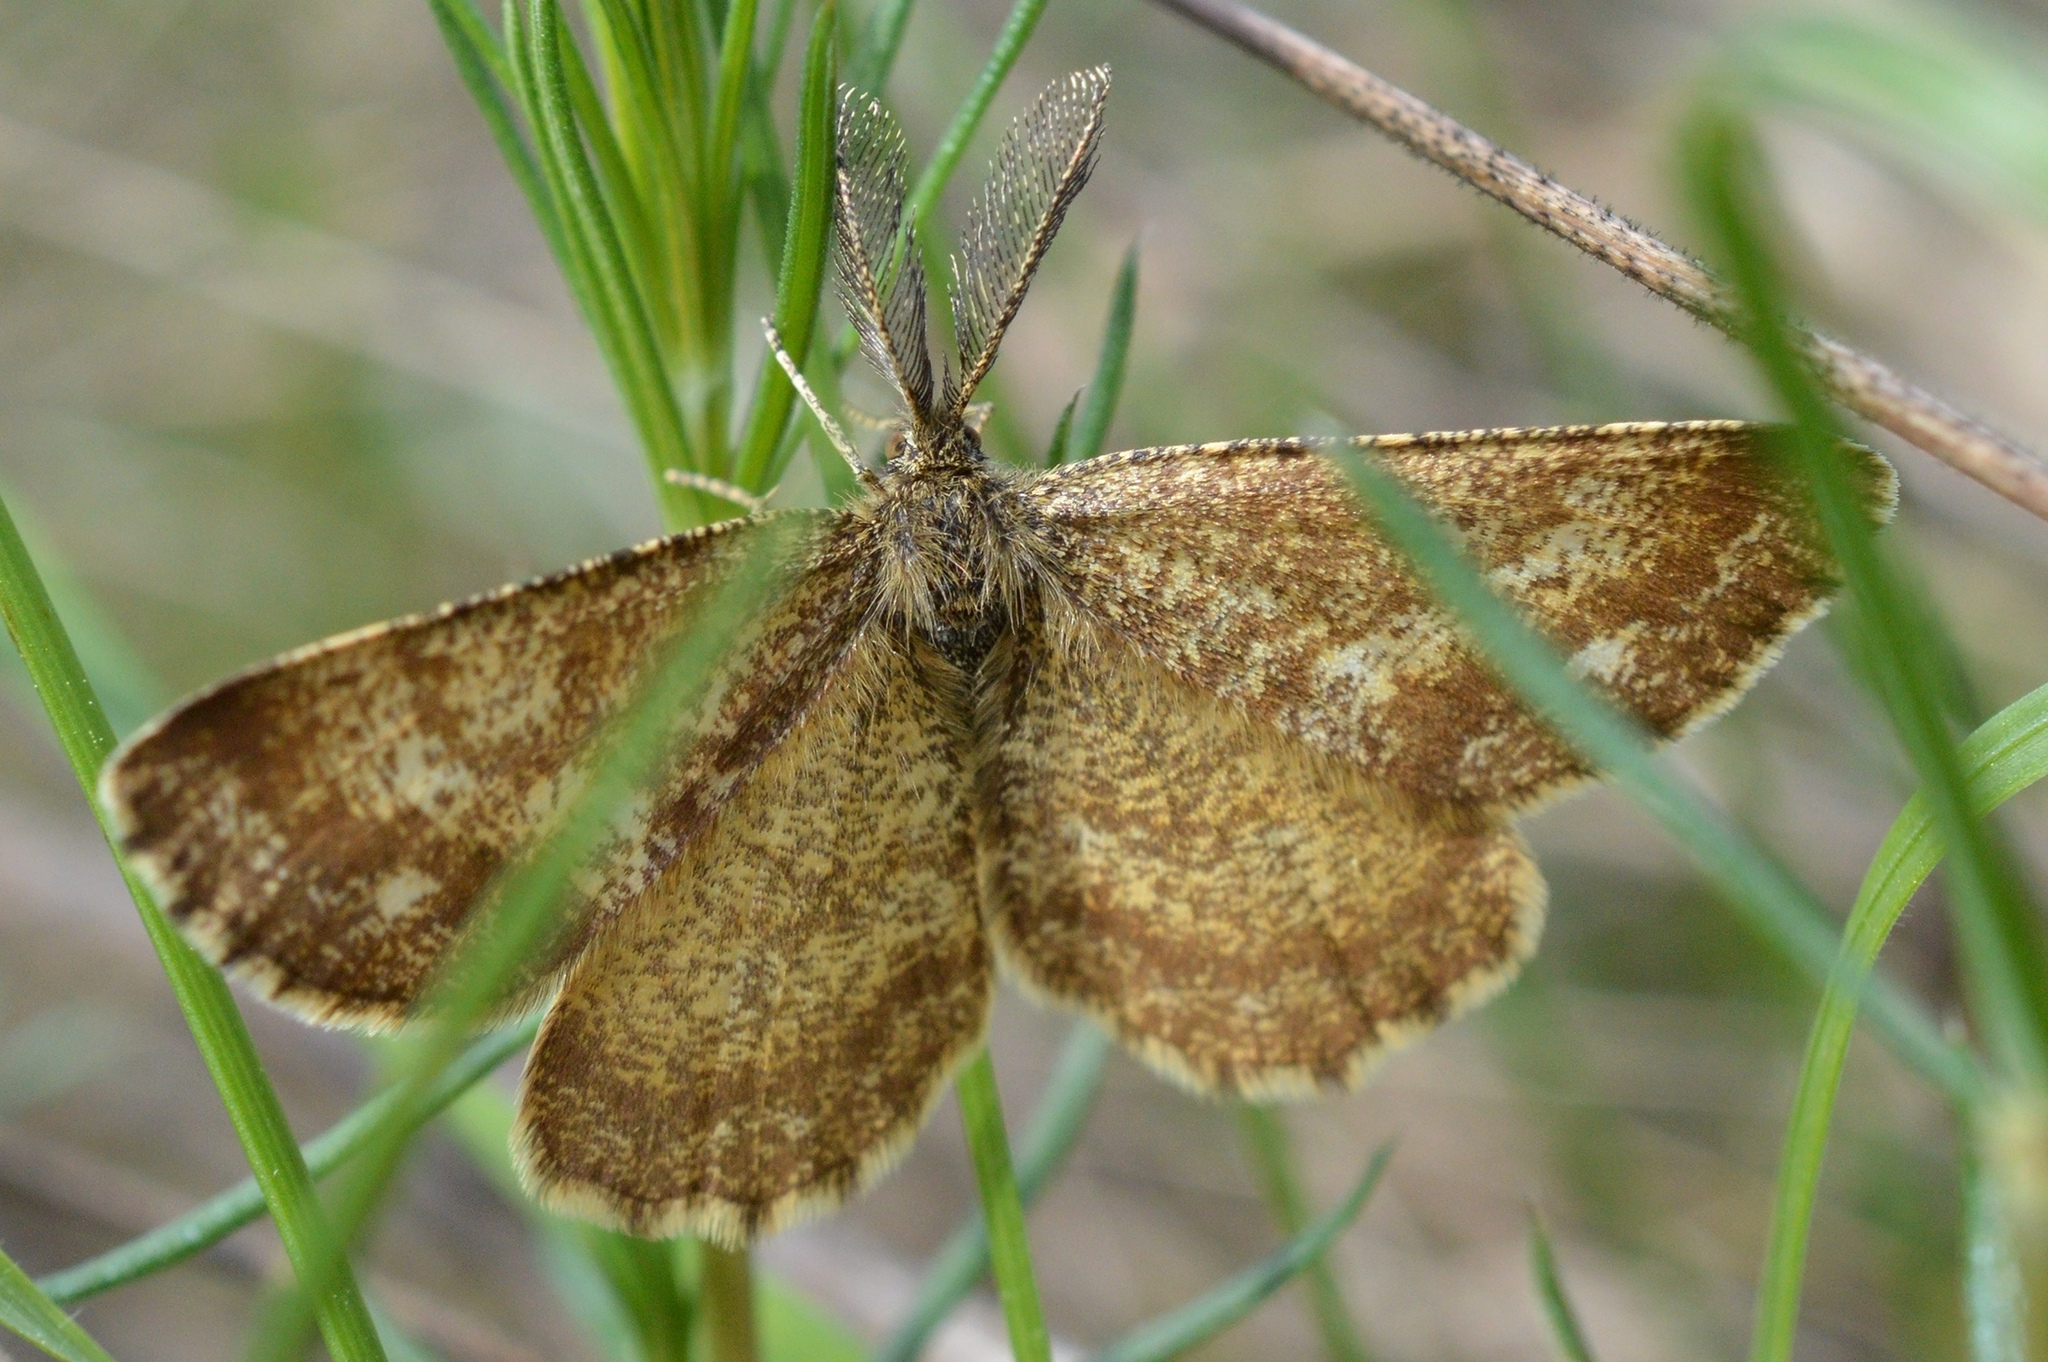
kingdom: Animalia
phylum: Arthropoda
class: Insecta
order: Lepidoptera
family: Geometridae
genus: Ematurga
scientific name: Ematurga atomaria
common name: Common heath
